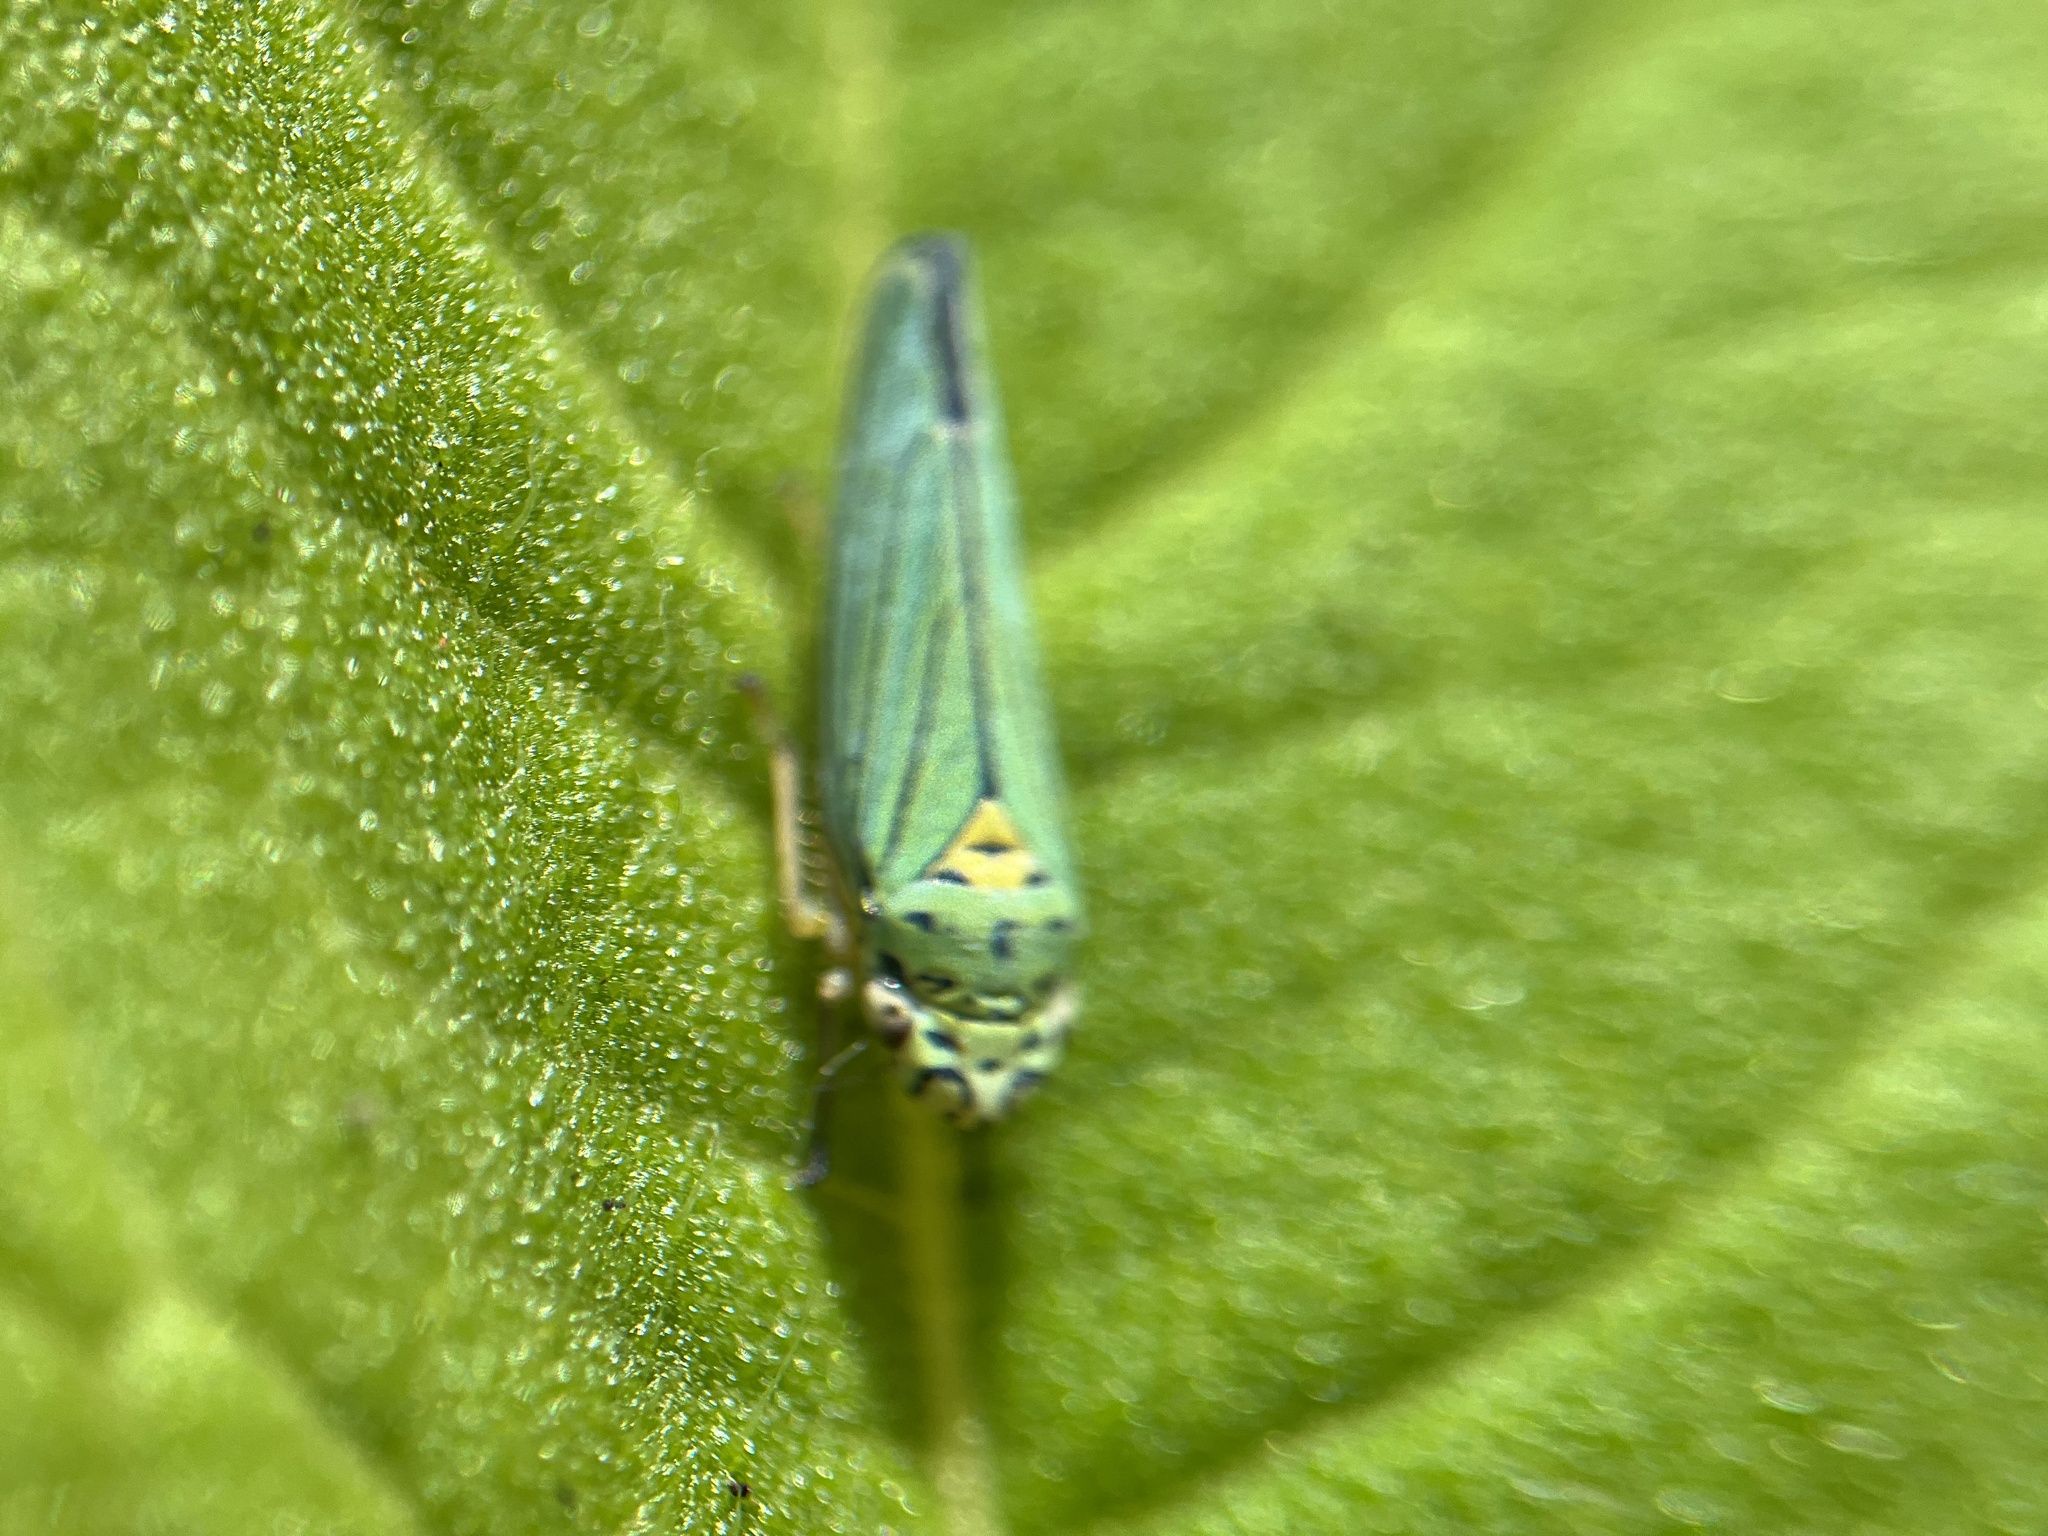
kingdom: Animalia
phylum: Arthropoda
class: Insecta
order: Hemiptera
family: Cicadellidae
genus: Graphocephala
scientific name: Graphocephala atropunctata
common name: Blue-green sharpshooter
